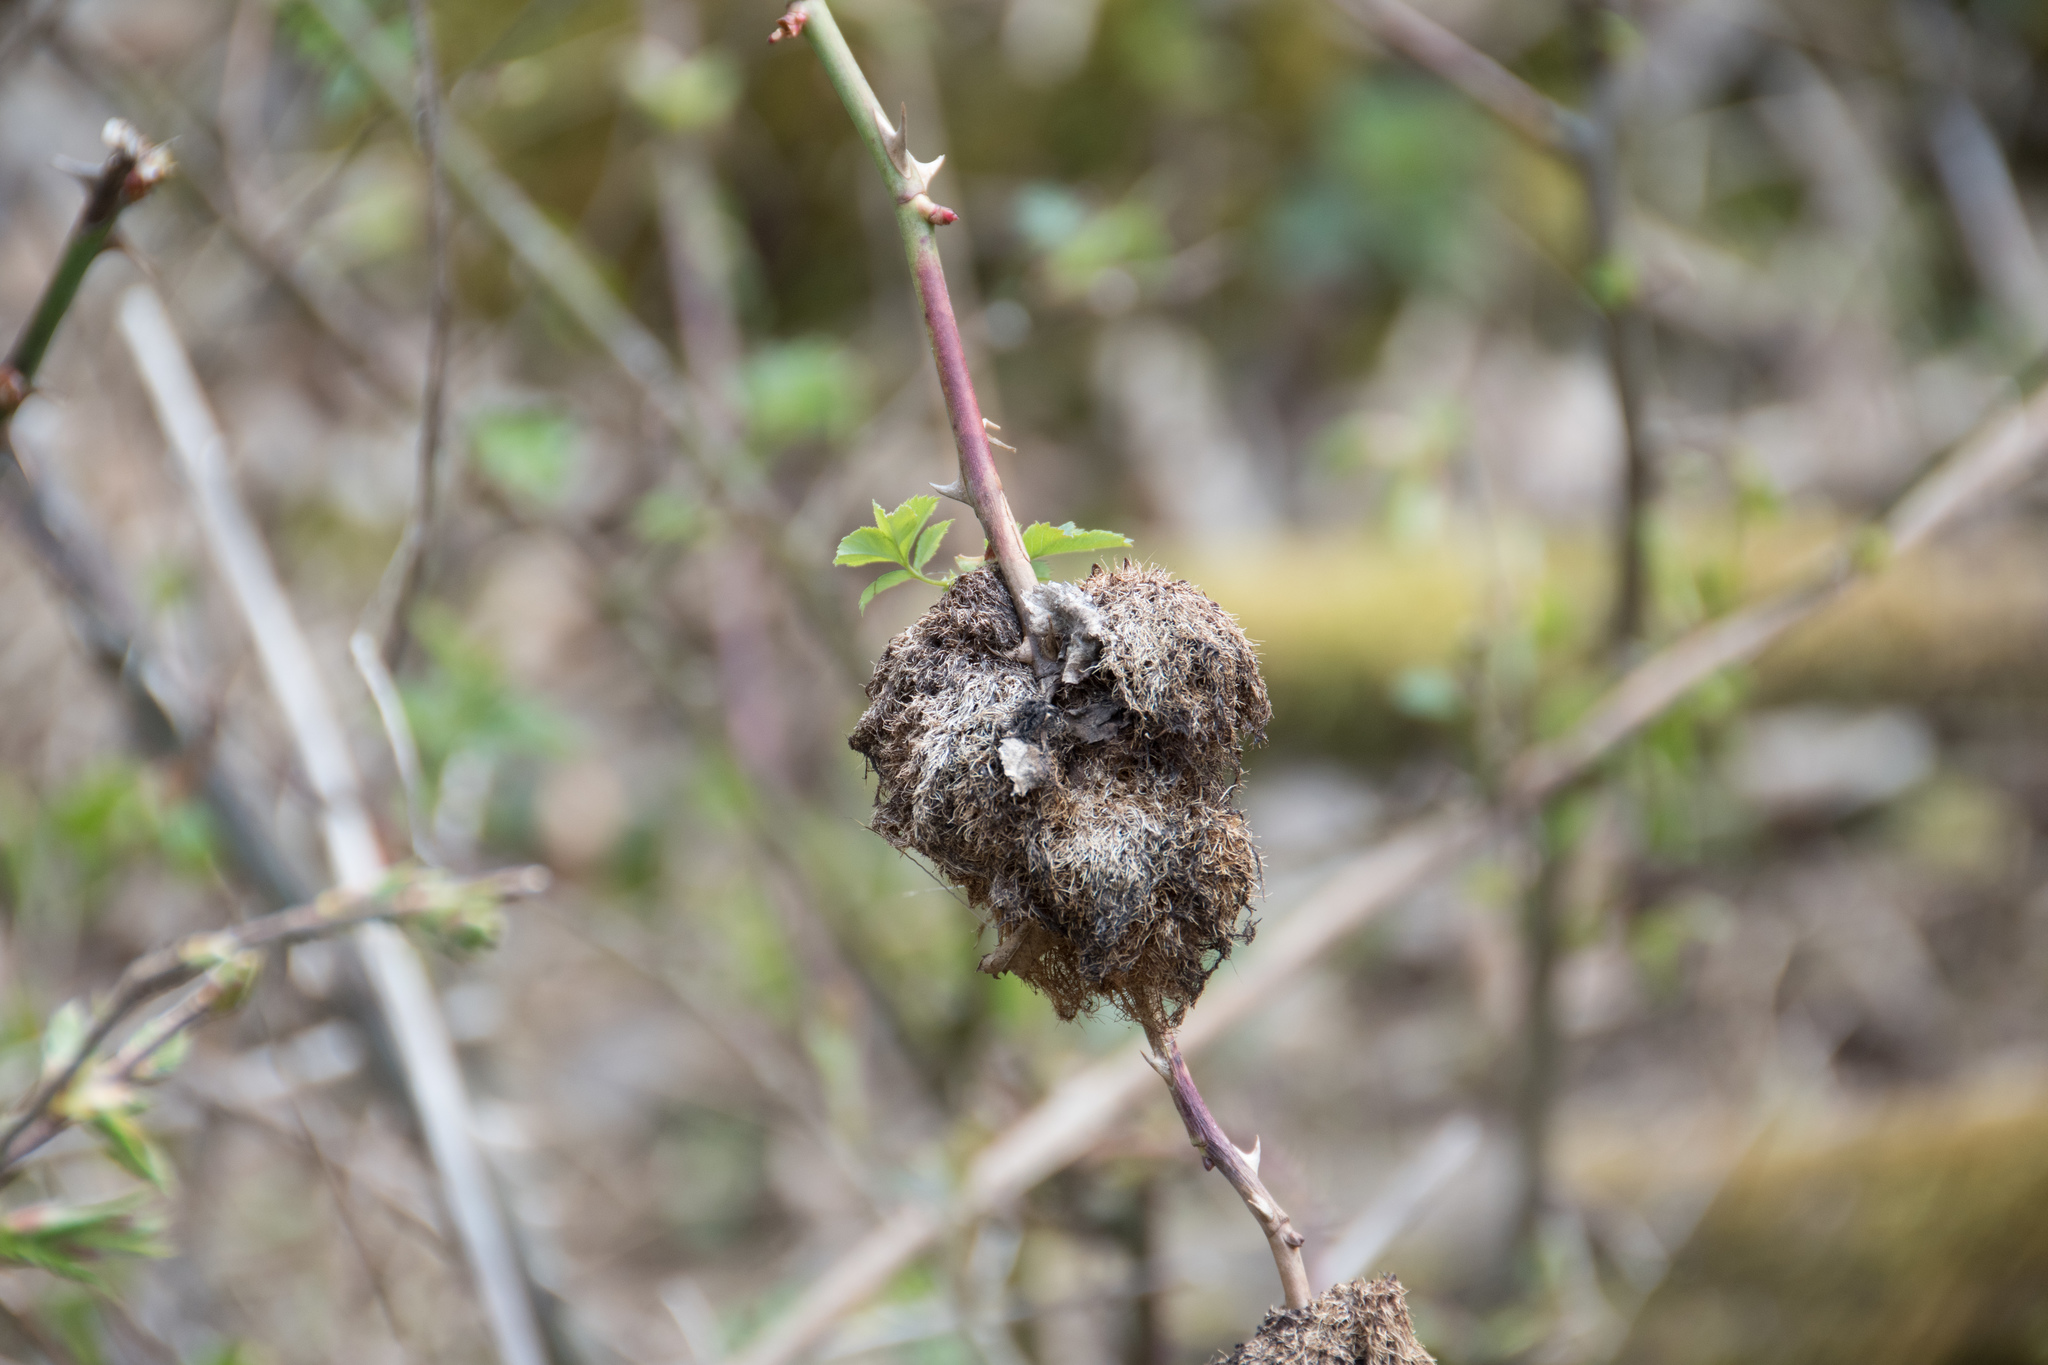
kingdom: Animalia
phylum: Arthropoda
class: Insecta
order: Hymenoptera
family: Cynipidae
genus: Diplolepis
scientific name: Diplolepis rosae
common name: Bedeguar gall
